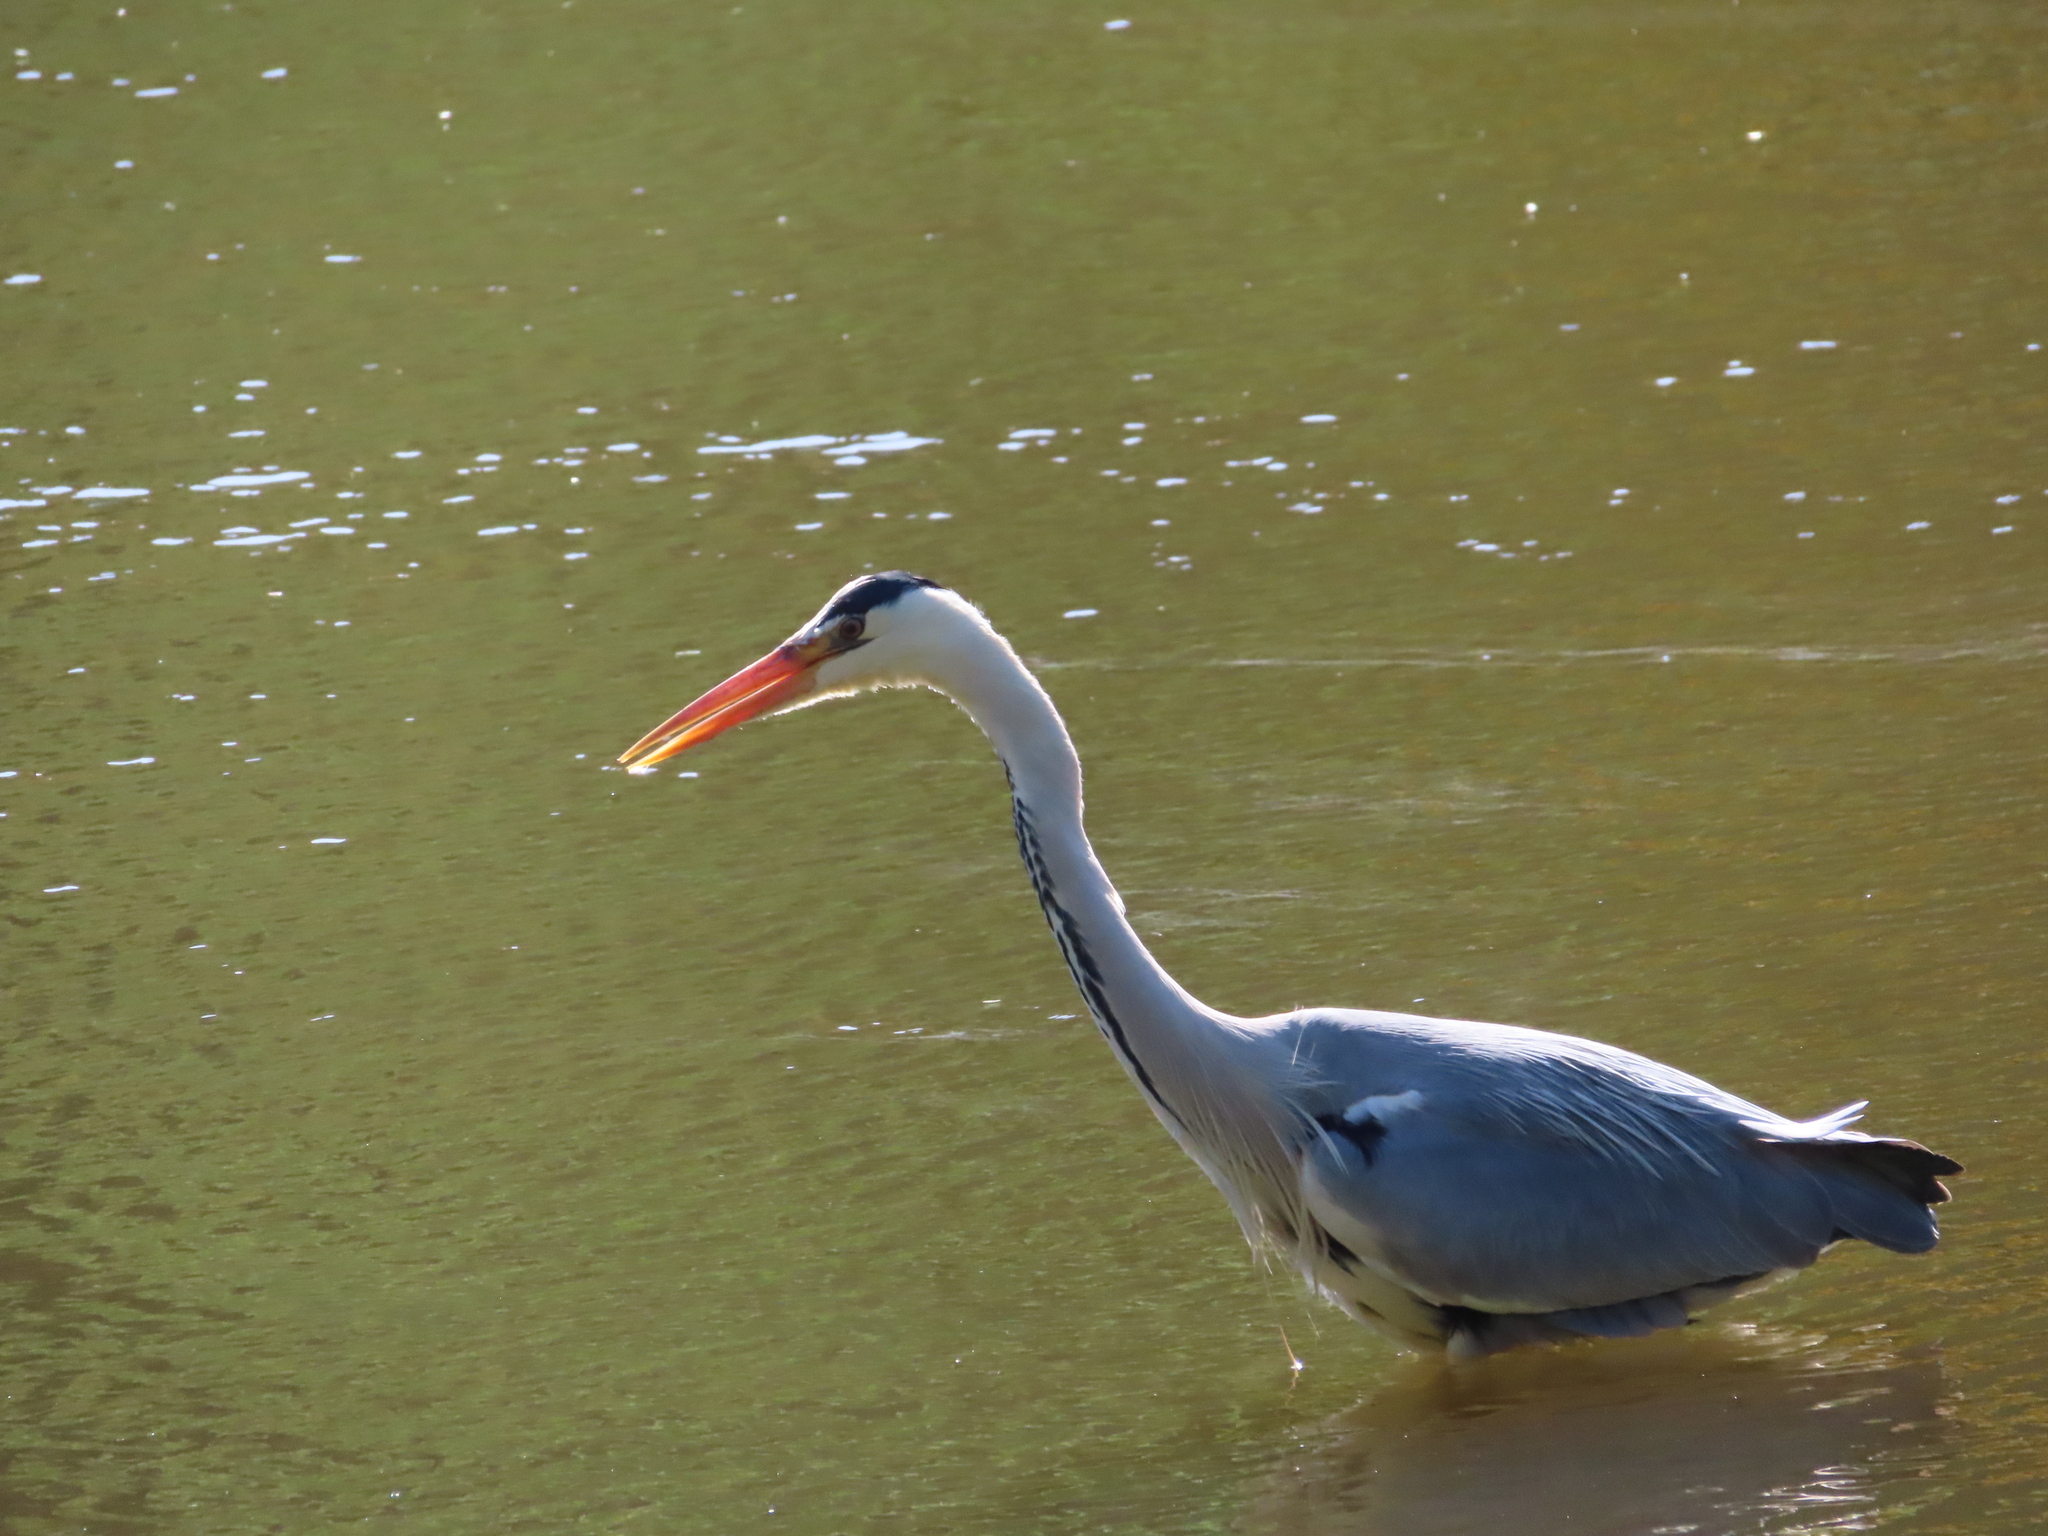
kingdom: Animalia
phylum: Chordata
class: Aves
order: Pelecaniformes
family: Ardeidae
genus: Ardea
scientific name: Ardea cinerea
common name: Grey heron
